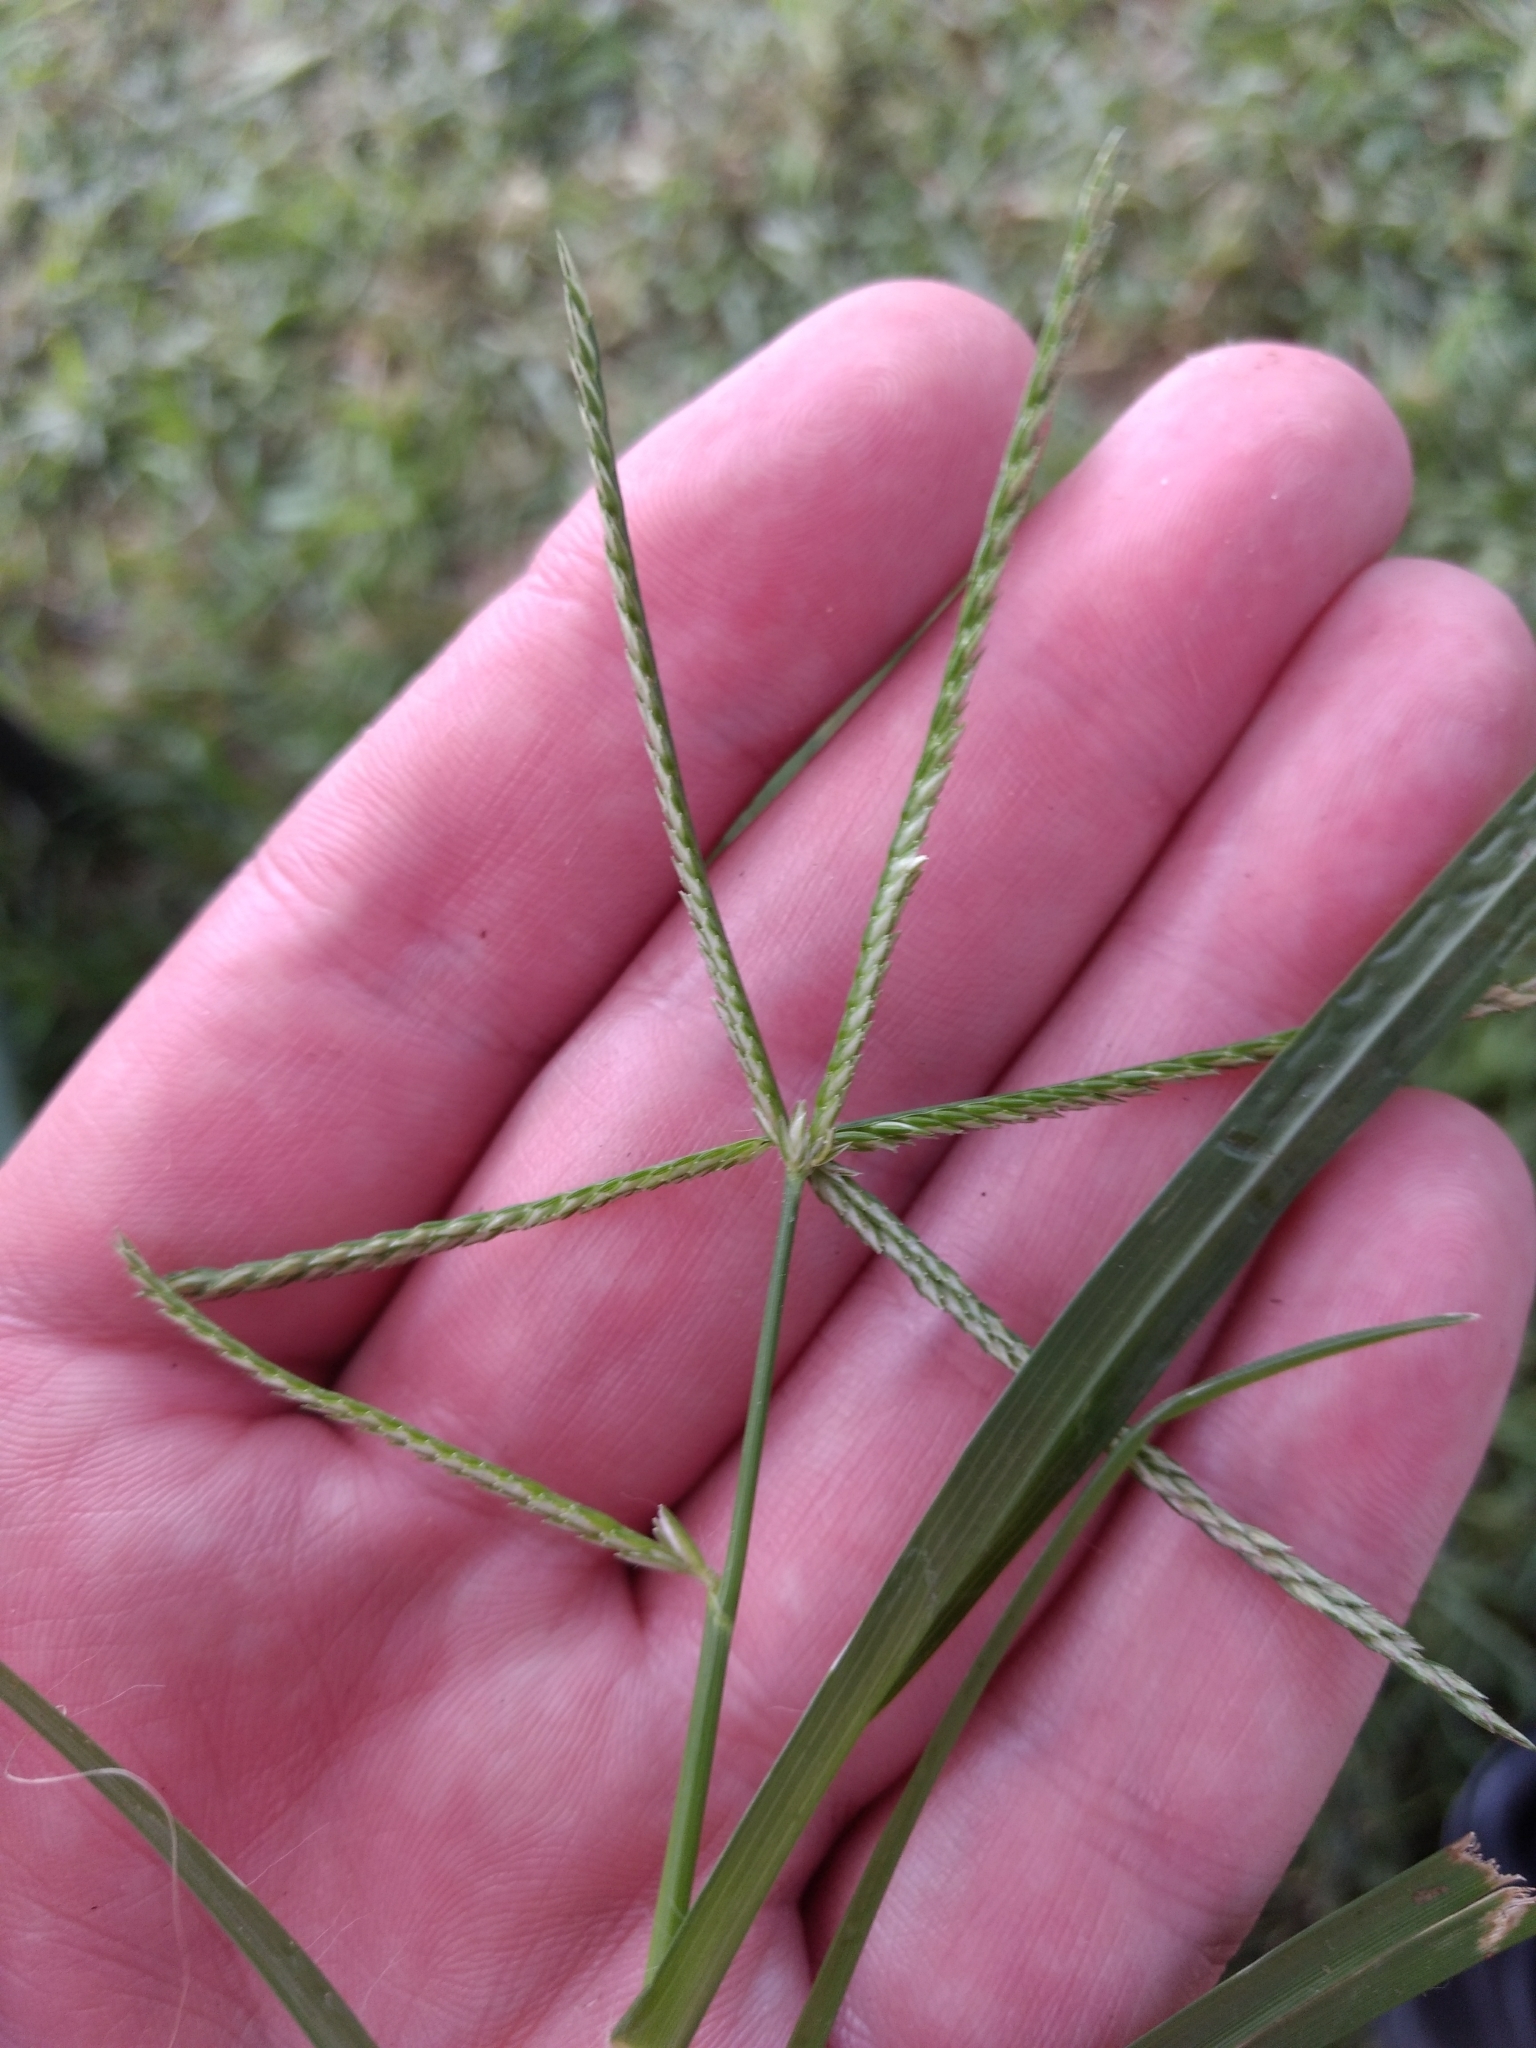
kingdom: Plantae
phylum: Tracheophyta
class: Liliopsida
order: Poales
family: Poaceae
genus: Eleusine
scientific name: Eleusine indica
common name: Yard-grass
